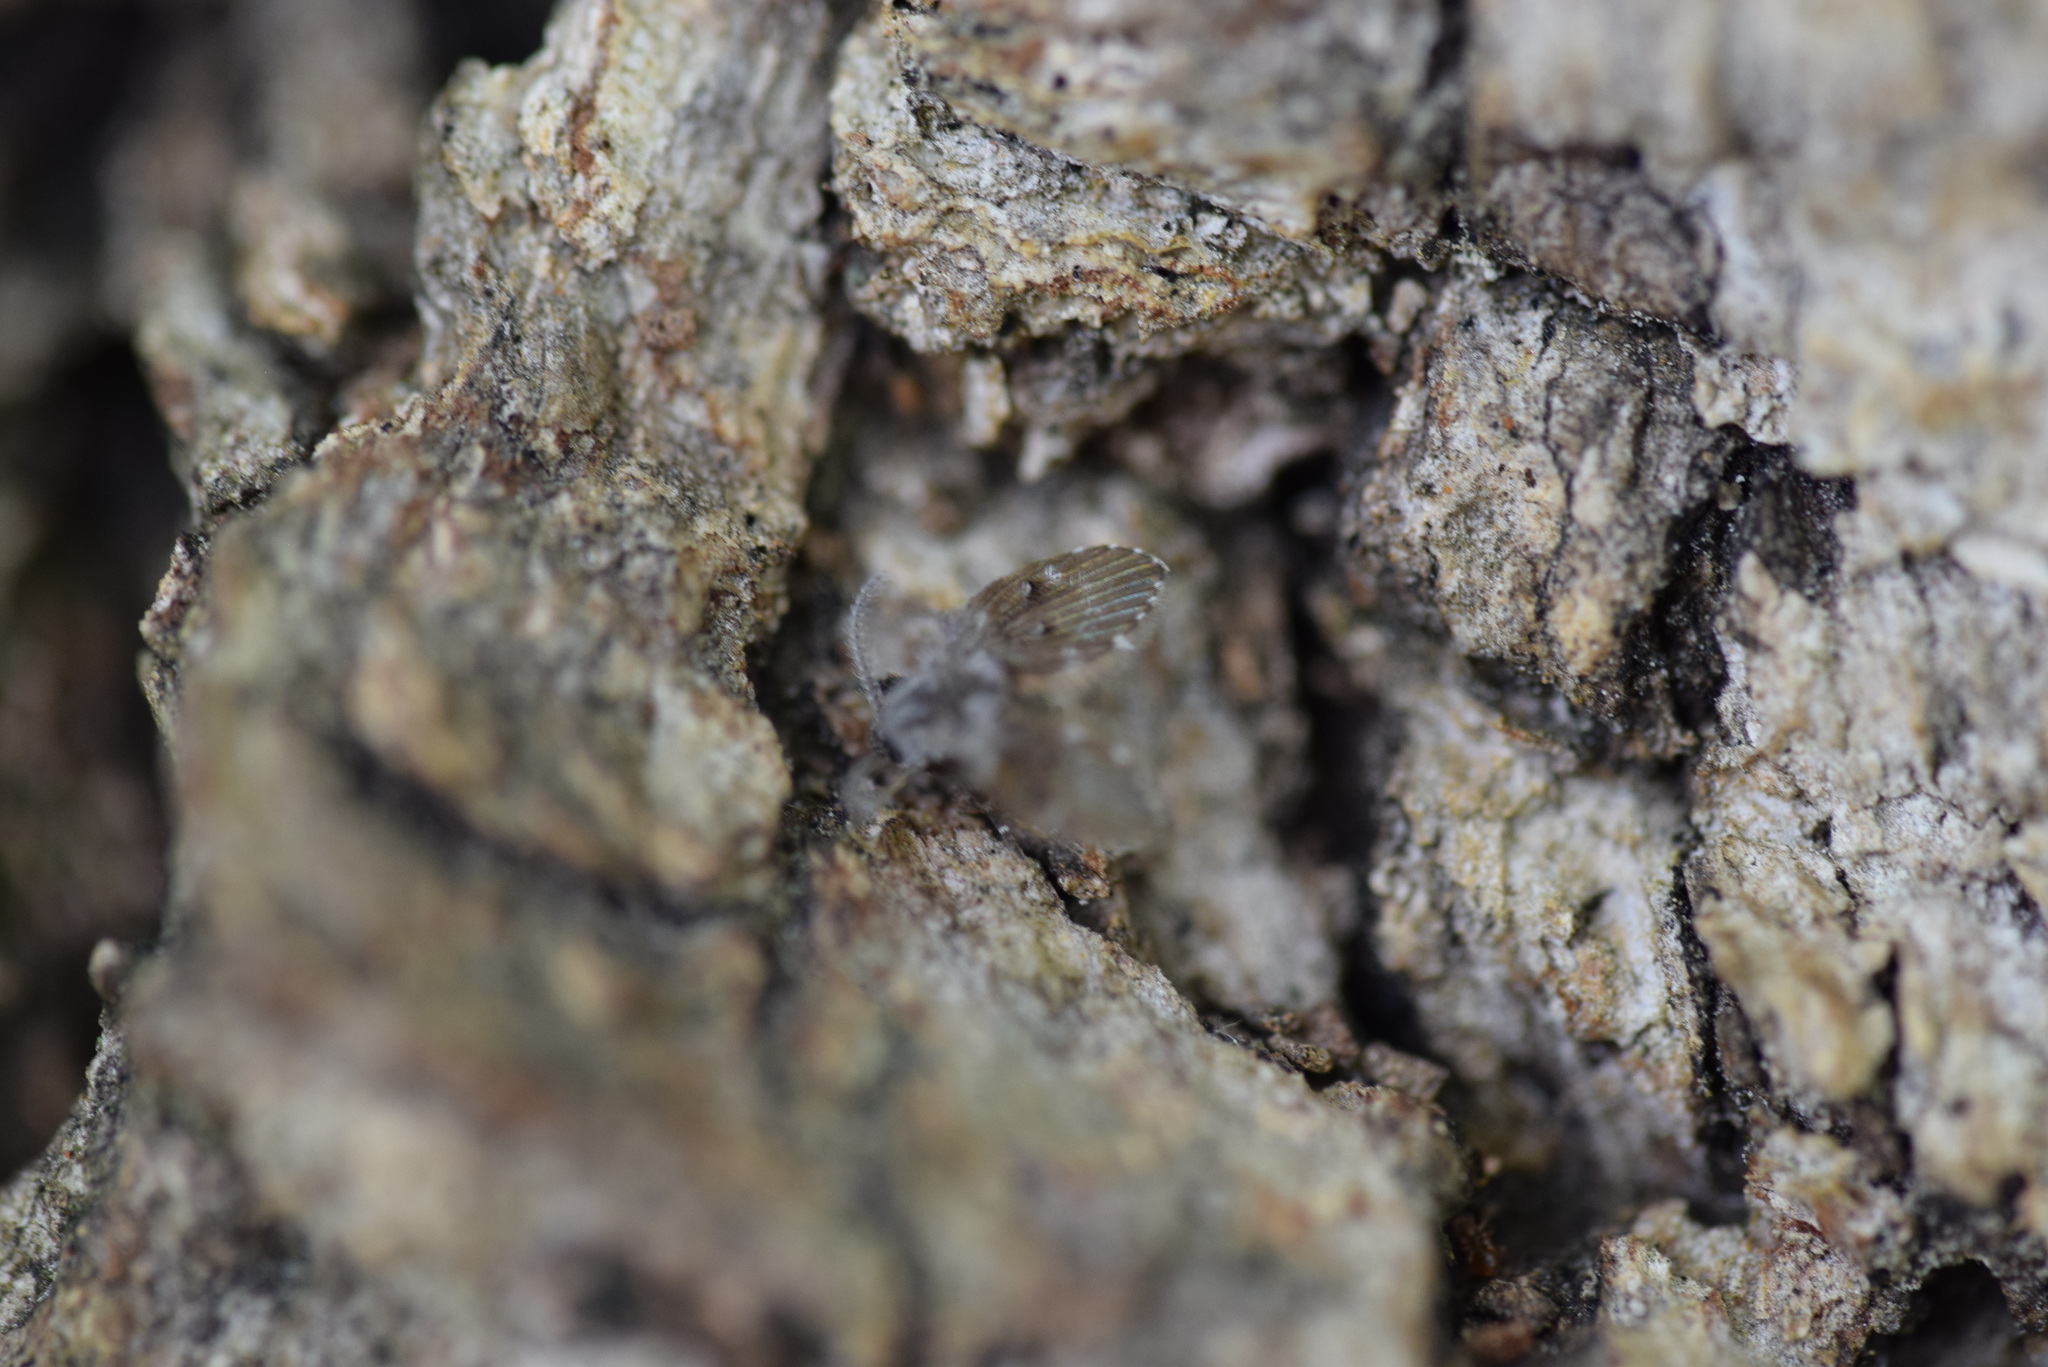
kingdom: Animalia
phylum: Arthropoda
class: Insecta
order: Diptera
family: Psychodidae
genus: Clogmia
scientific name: Clogmia albipunctatus
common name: White-spotted moth fly
